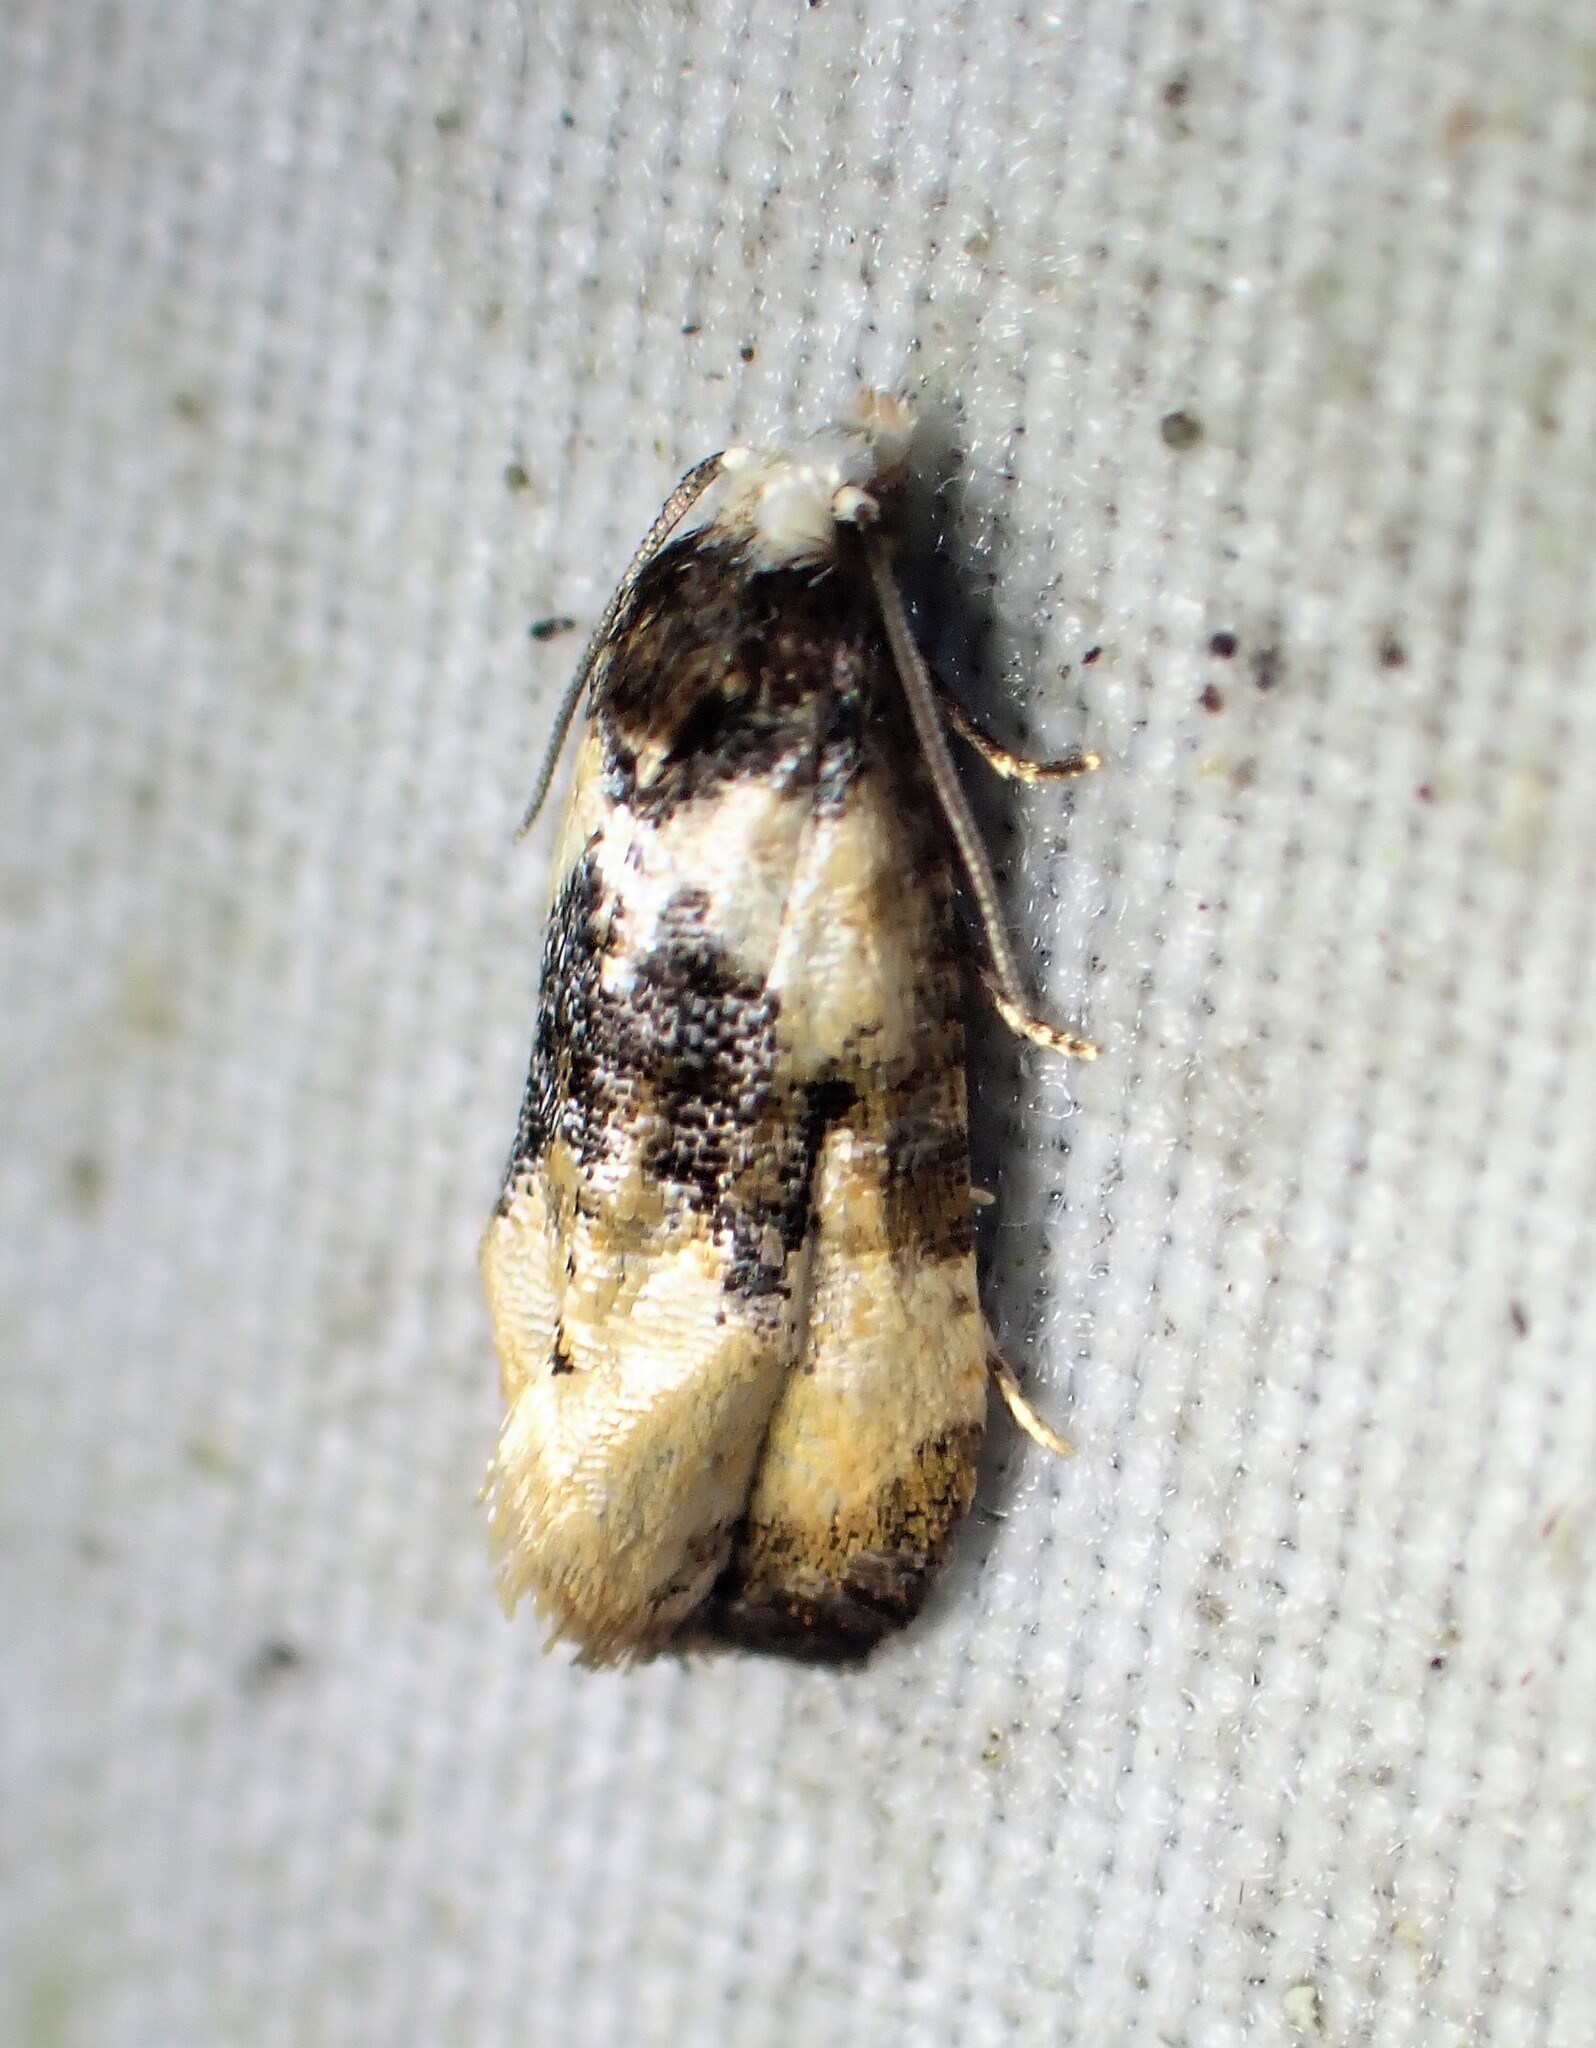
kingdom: Animalia
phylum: Arthropoda
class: Insecta
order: Lepidoptera
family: Tortricidae
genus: Phalonidia
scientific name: Phalonidia memoranda
